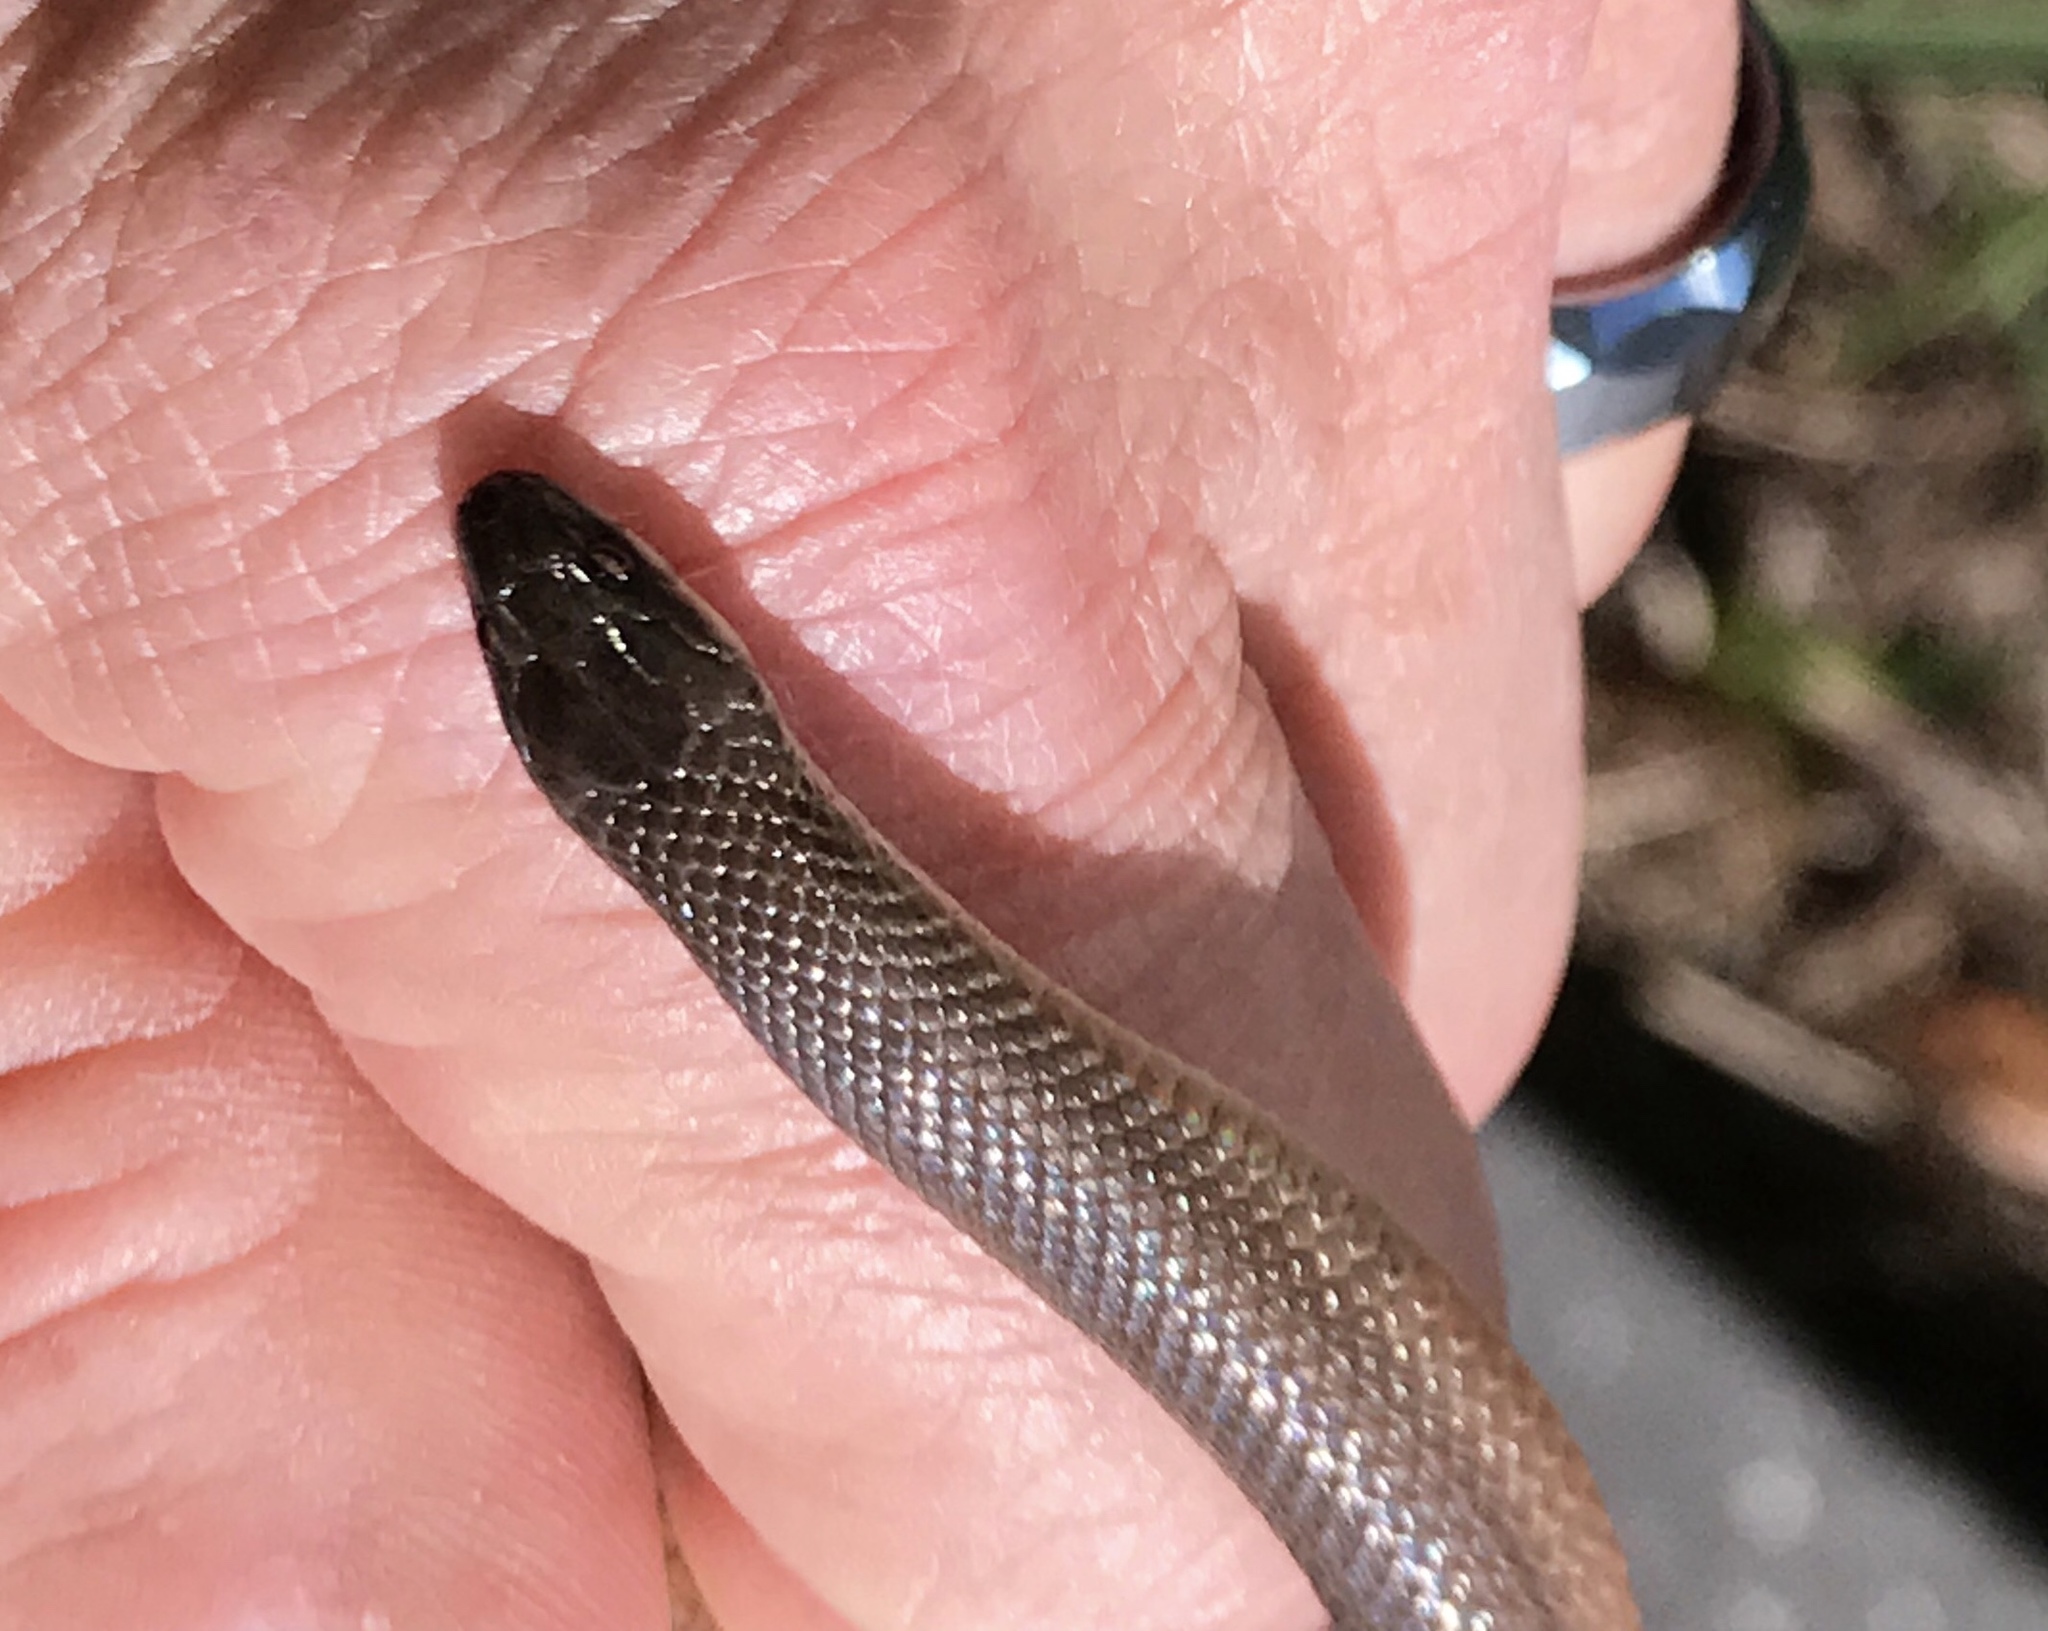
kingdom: Animalia
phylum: Chordata
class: Squamata
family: Colubridae
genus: Haldea
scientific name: Haldea striatula
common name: Rough earth snake
